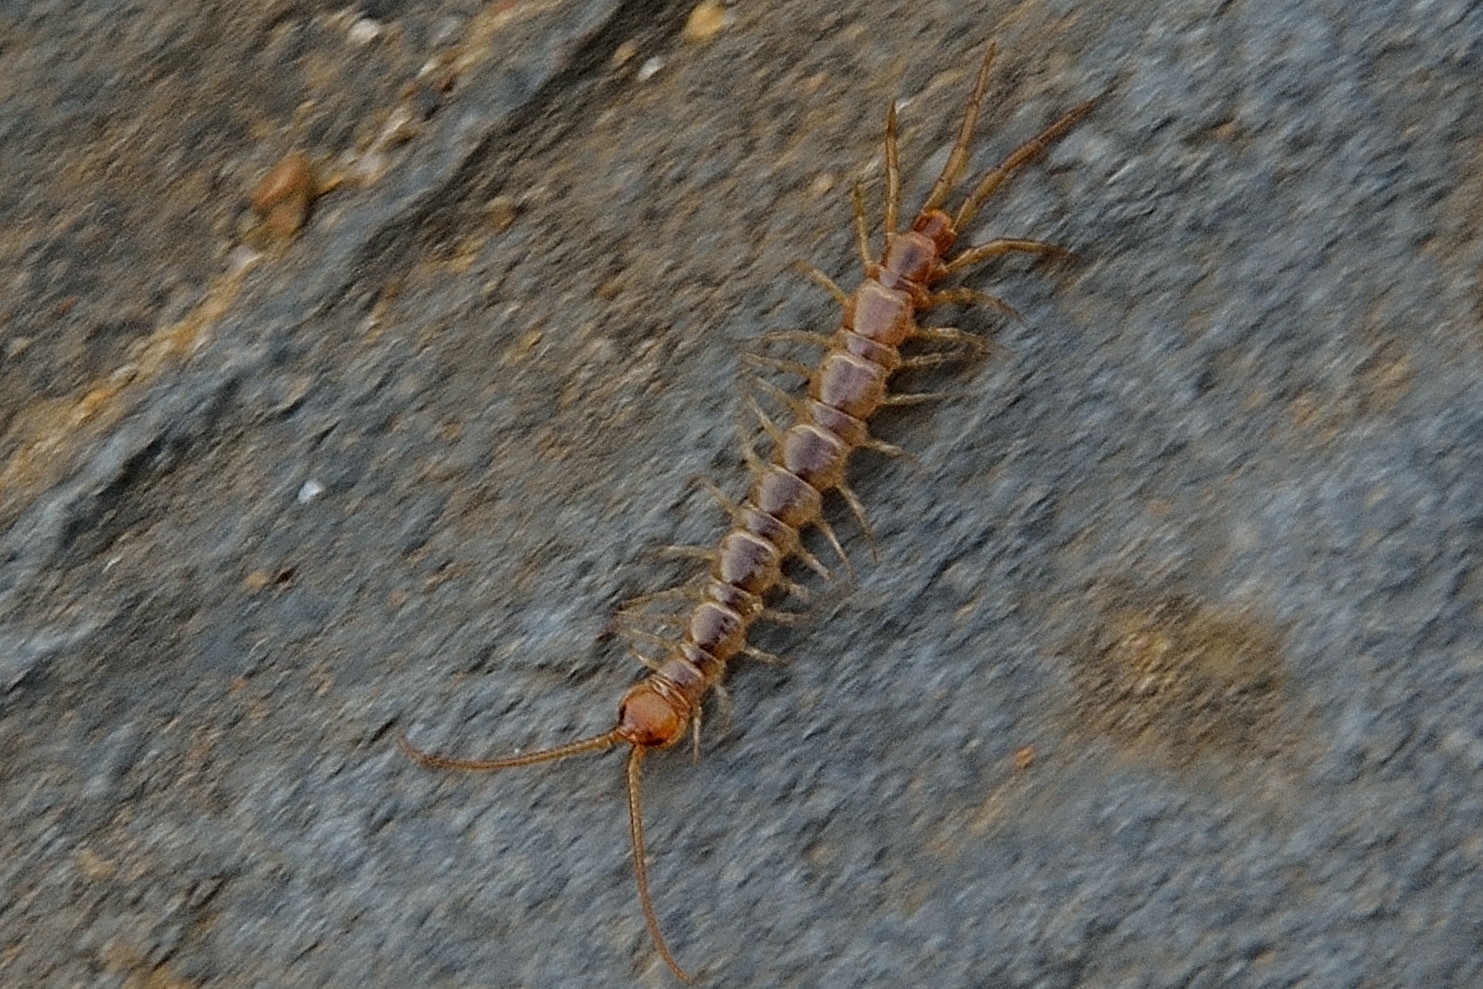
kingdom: Animalia
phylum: Arthropoda
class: Chilopoda
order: Lithobiomorpha
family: Lithobiidae
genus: Lithobius
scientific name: Lithobius melanops
